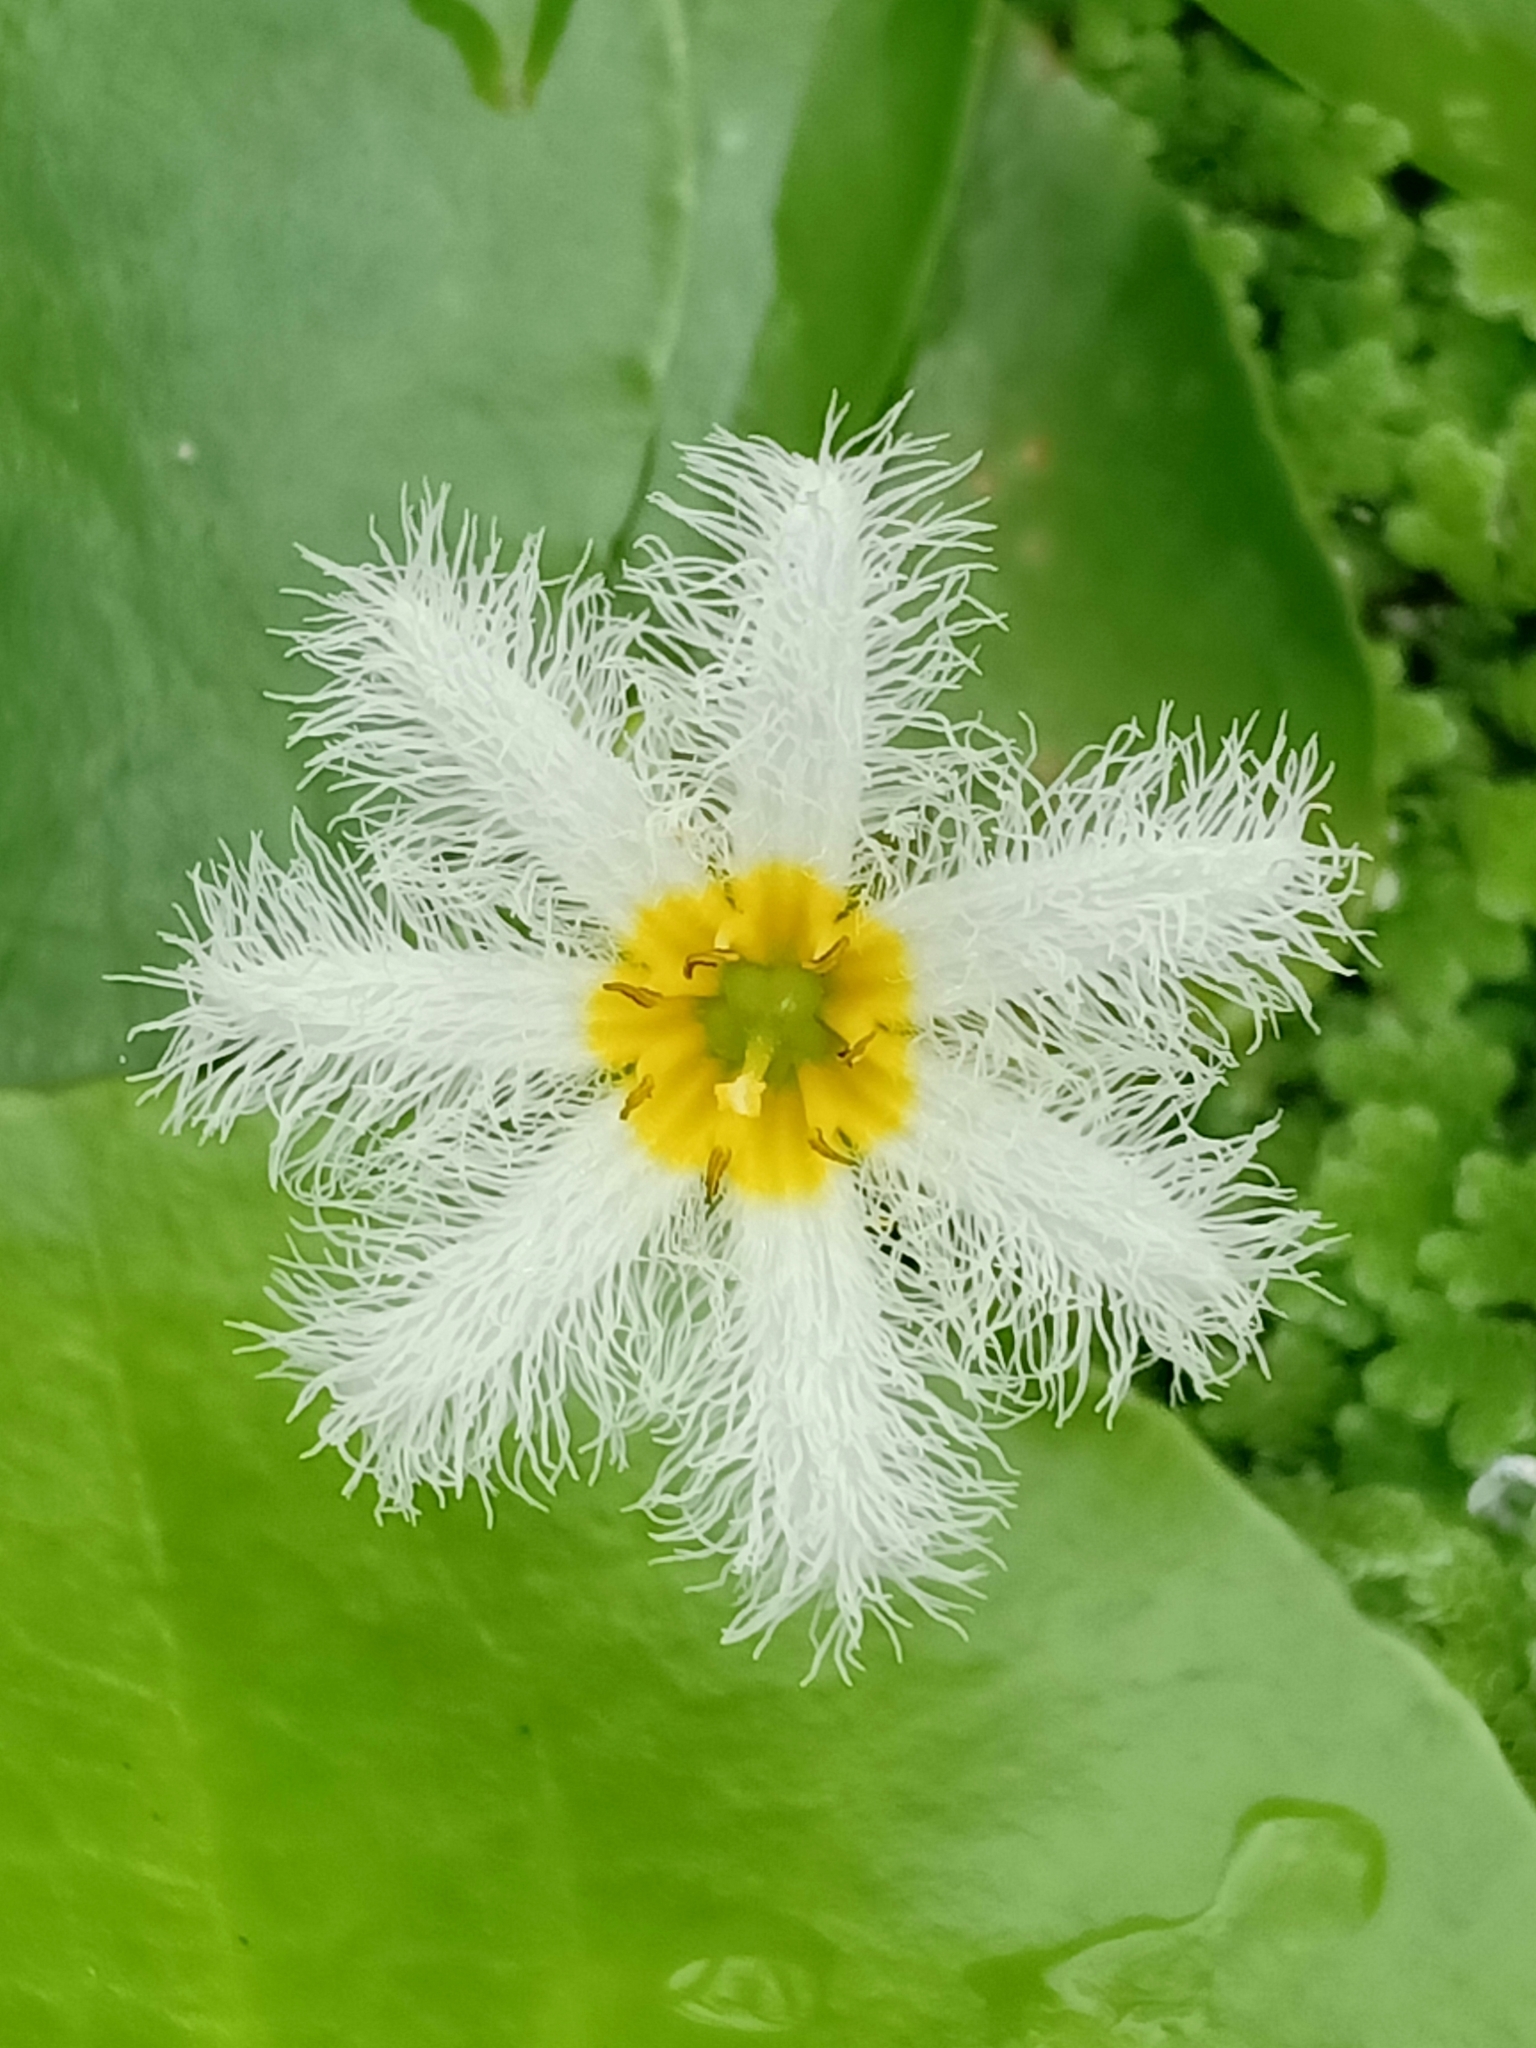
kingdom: Plantae
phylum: Tracheophyta
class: Magnoliopsida
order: Asterales
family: Menyanthaceae
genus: Nymphoides
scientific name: Nymphoides indica
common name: Water-snowflake
